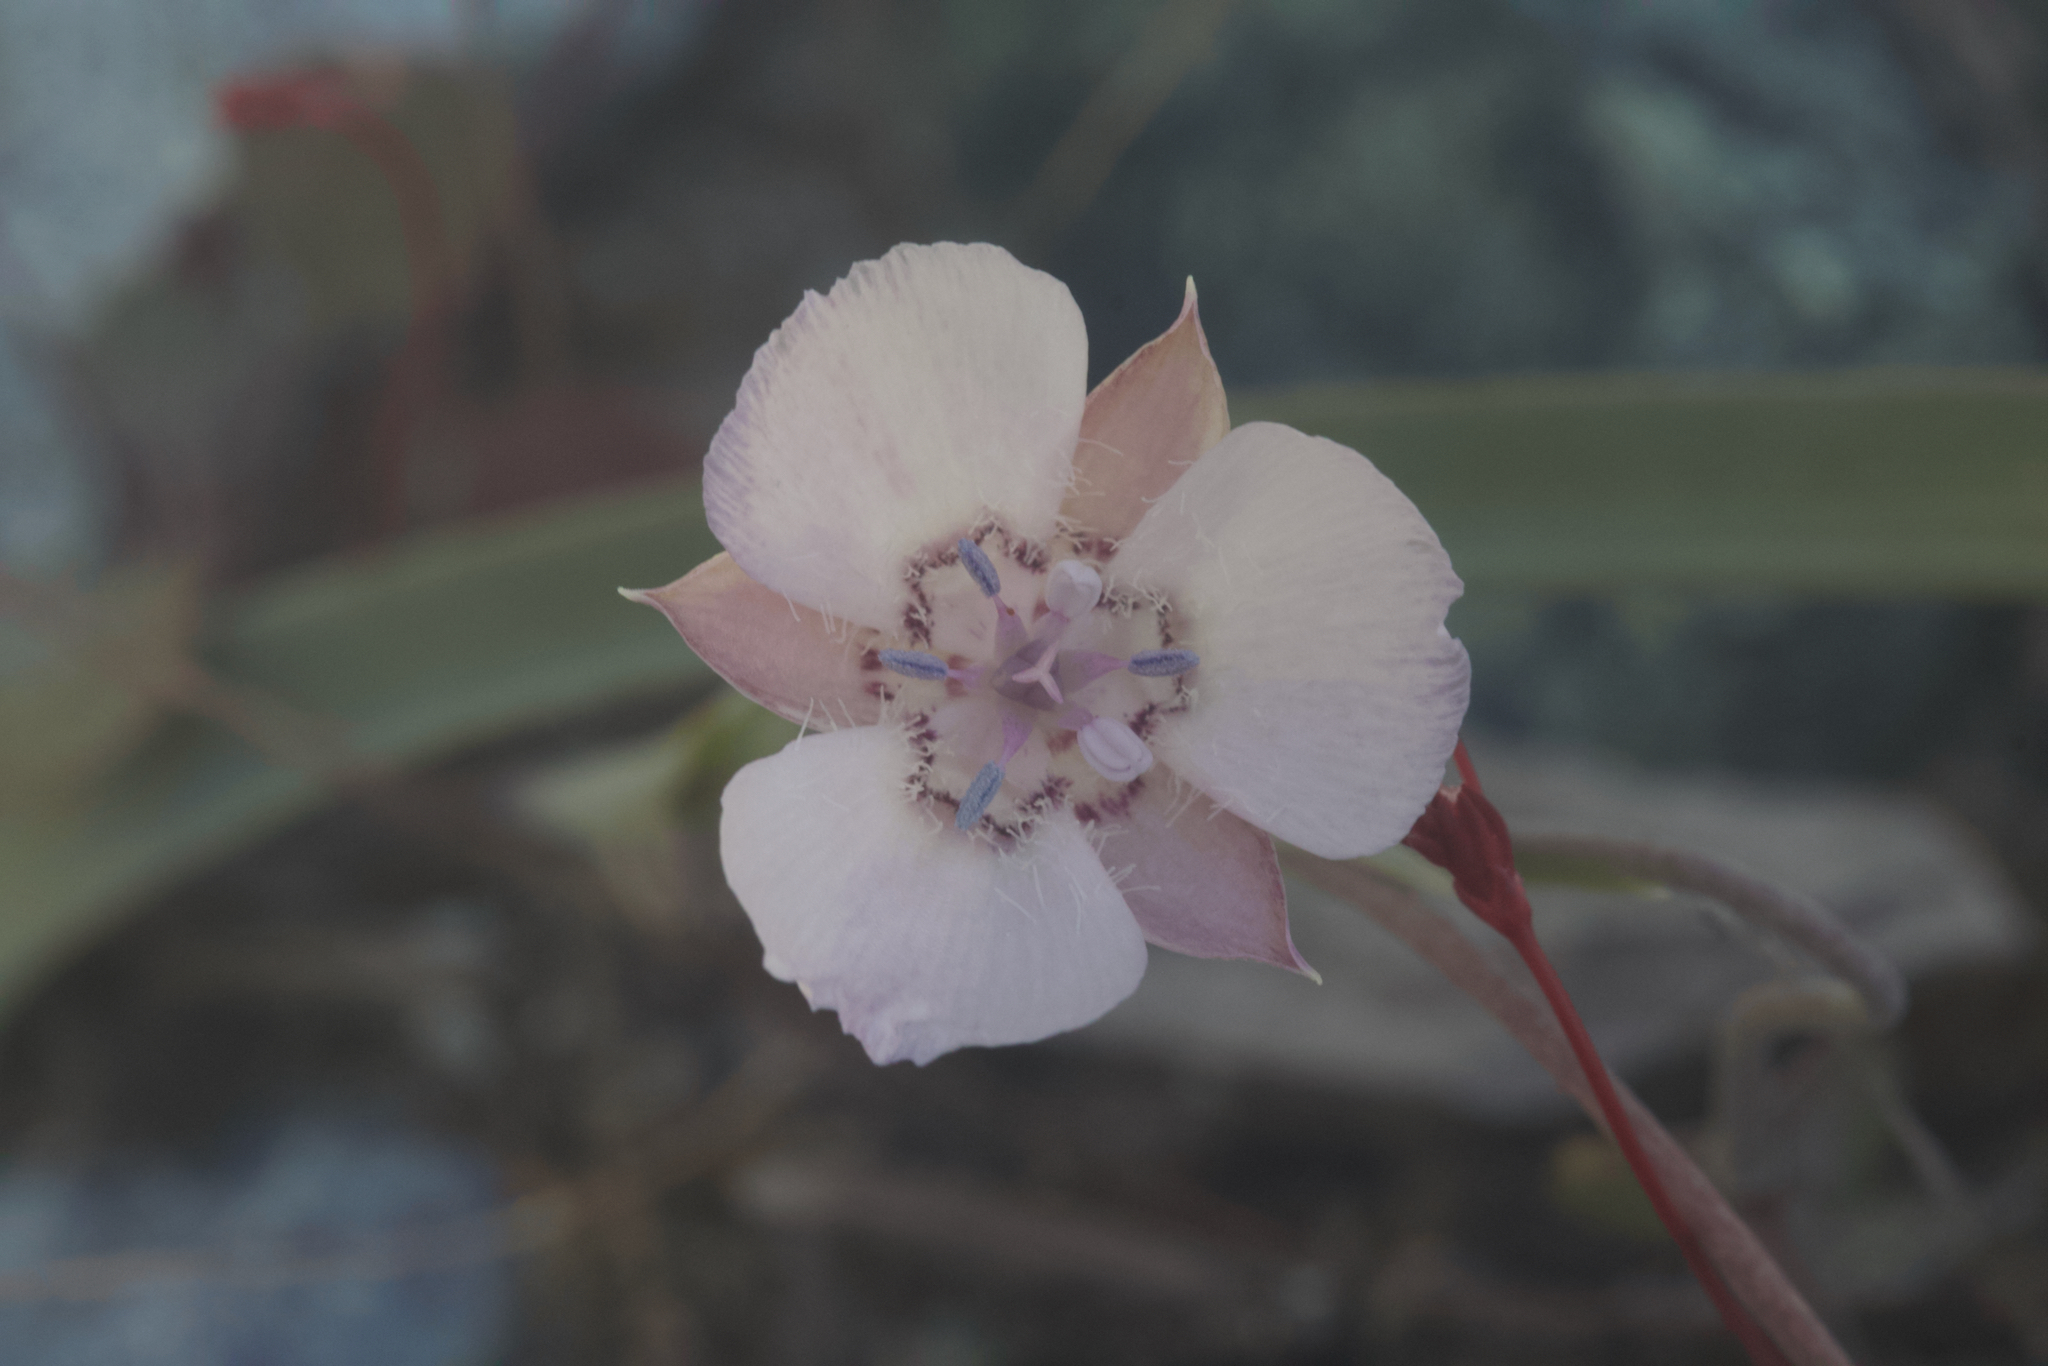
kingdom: Plantae
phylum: Tracheophyta
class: Liliopsida
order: Liliales
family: Liliaceae
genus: Calochortus
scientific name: Calochortus umbellatus
